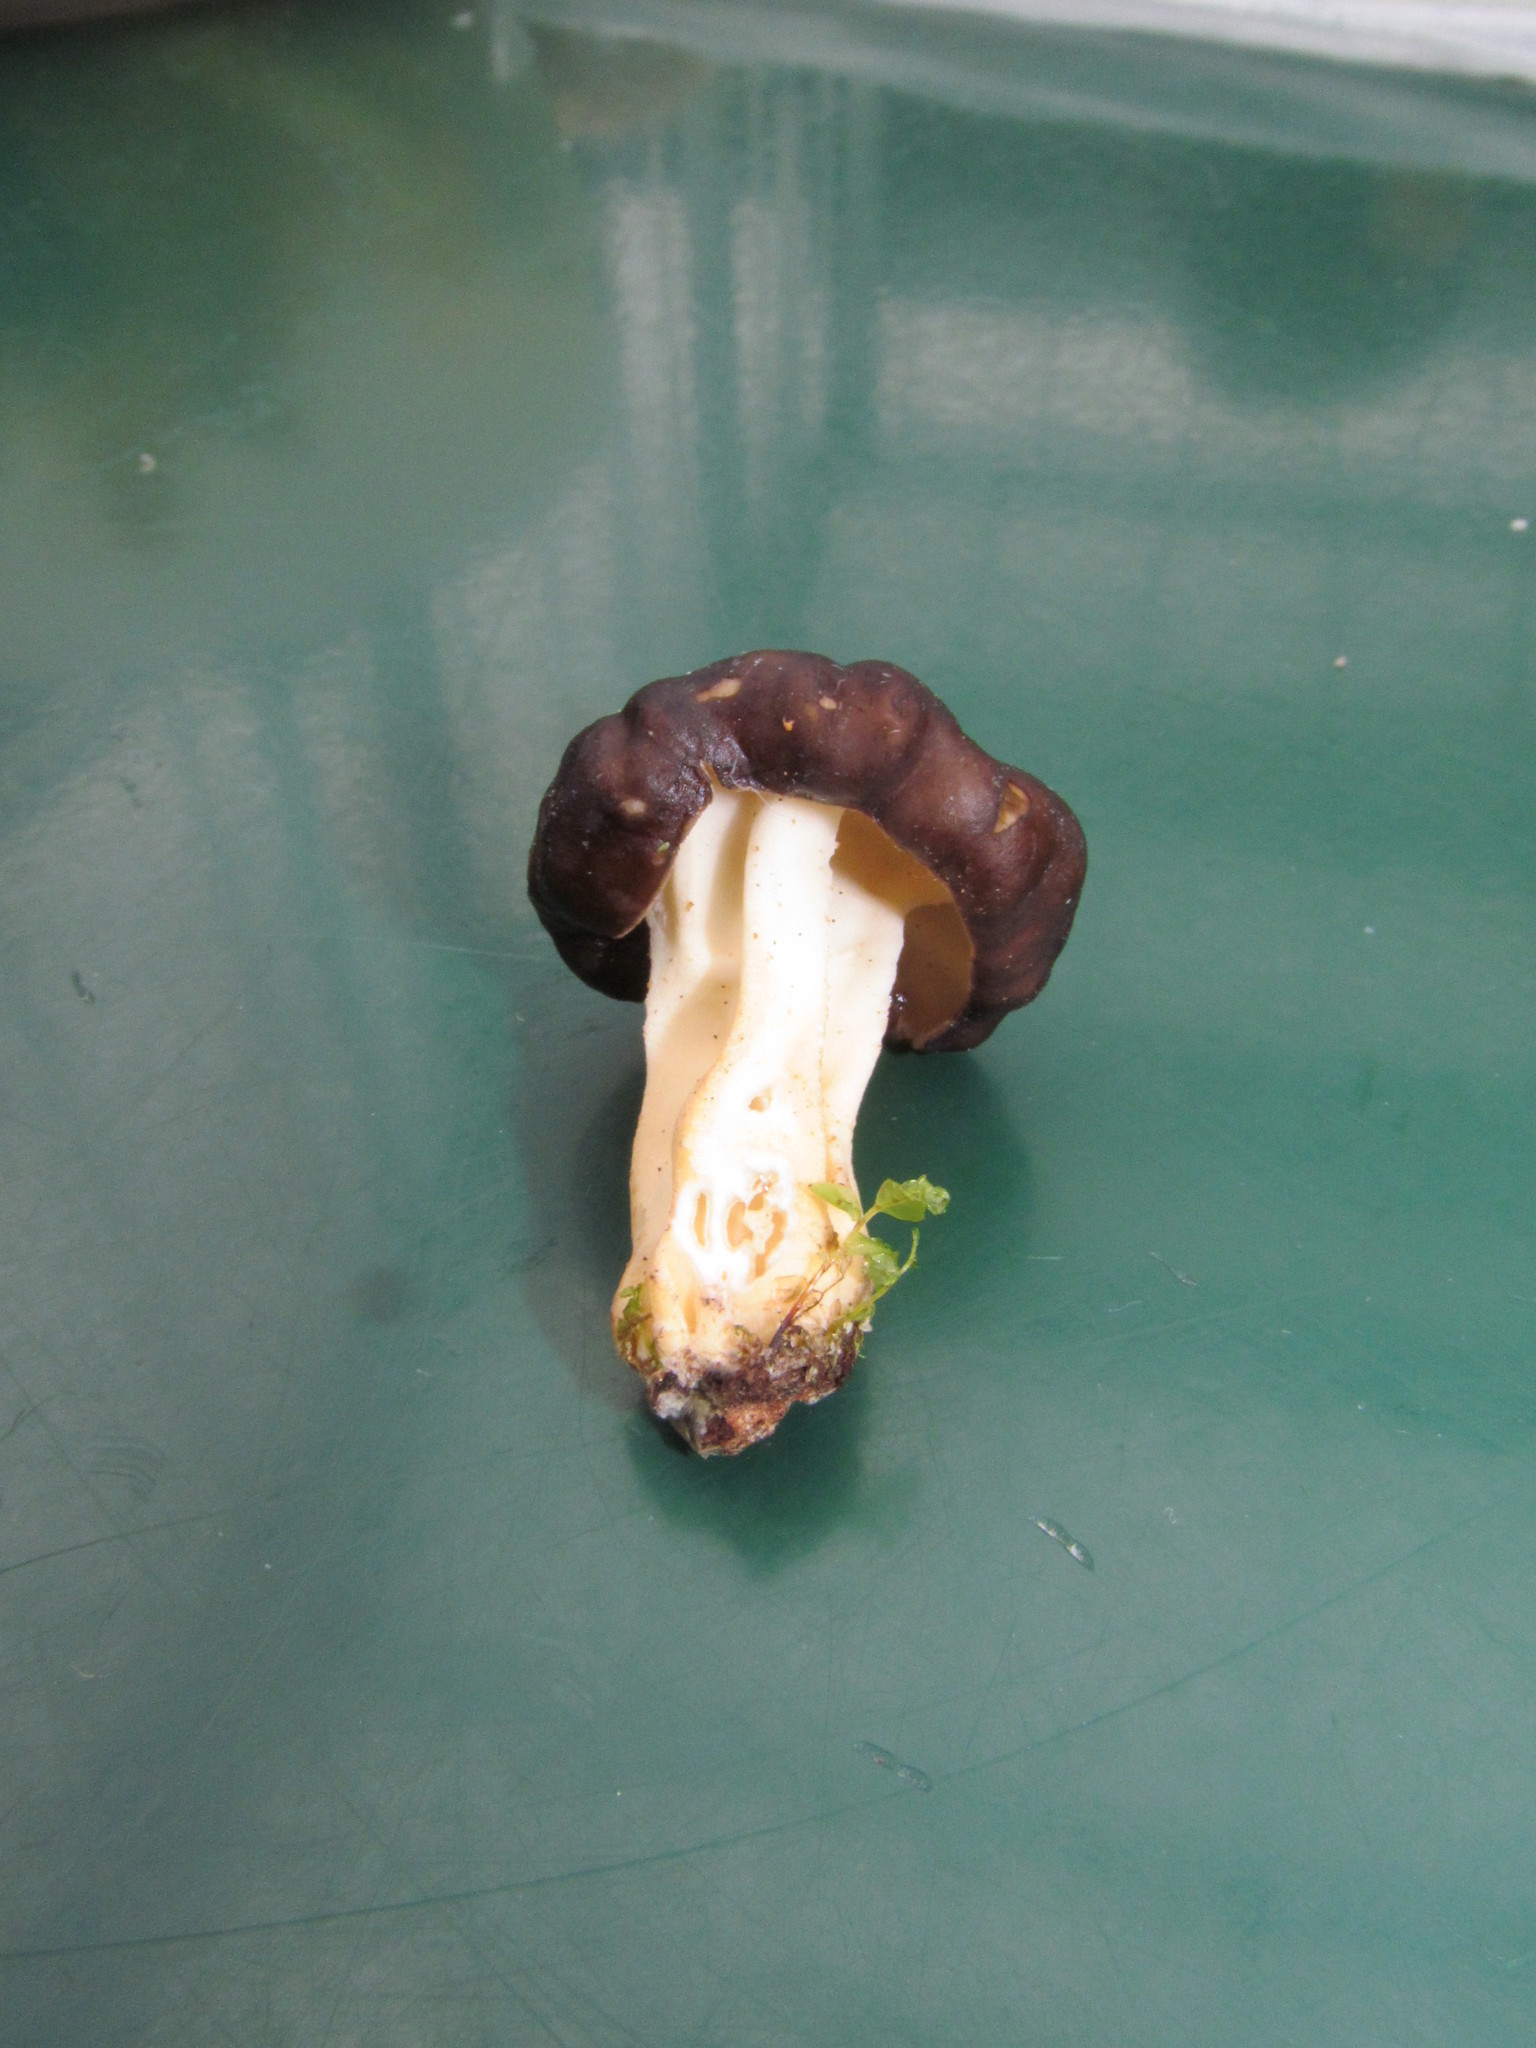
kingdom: Fungi
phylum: Ascomycota
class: Pezizomycetes
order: Pezizales
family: Discinaceae
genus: Gyromitra
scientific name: Gyromitra californica
